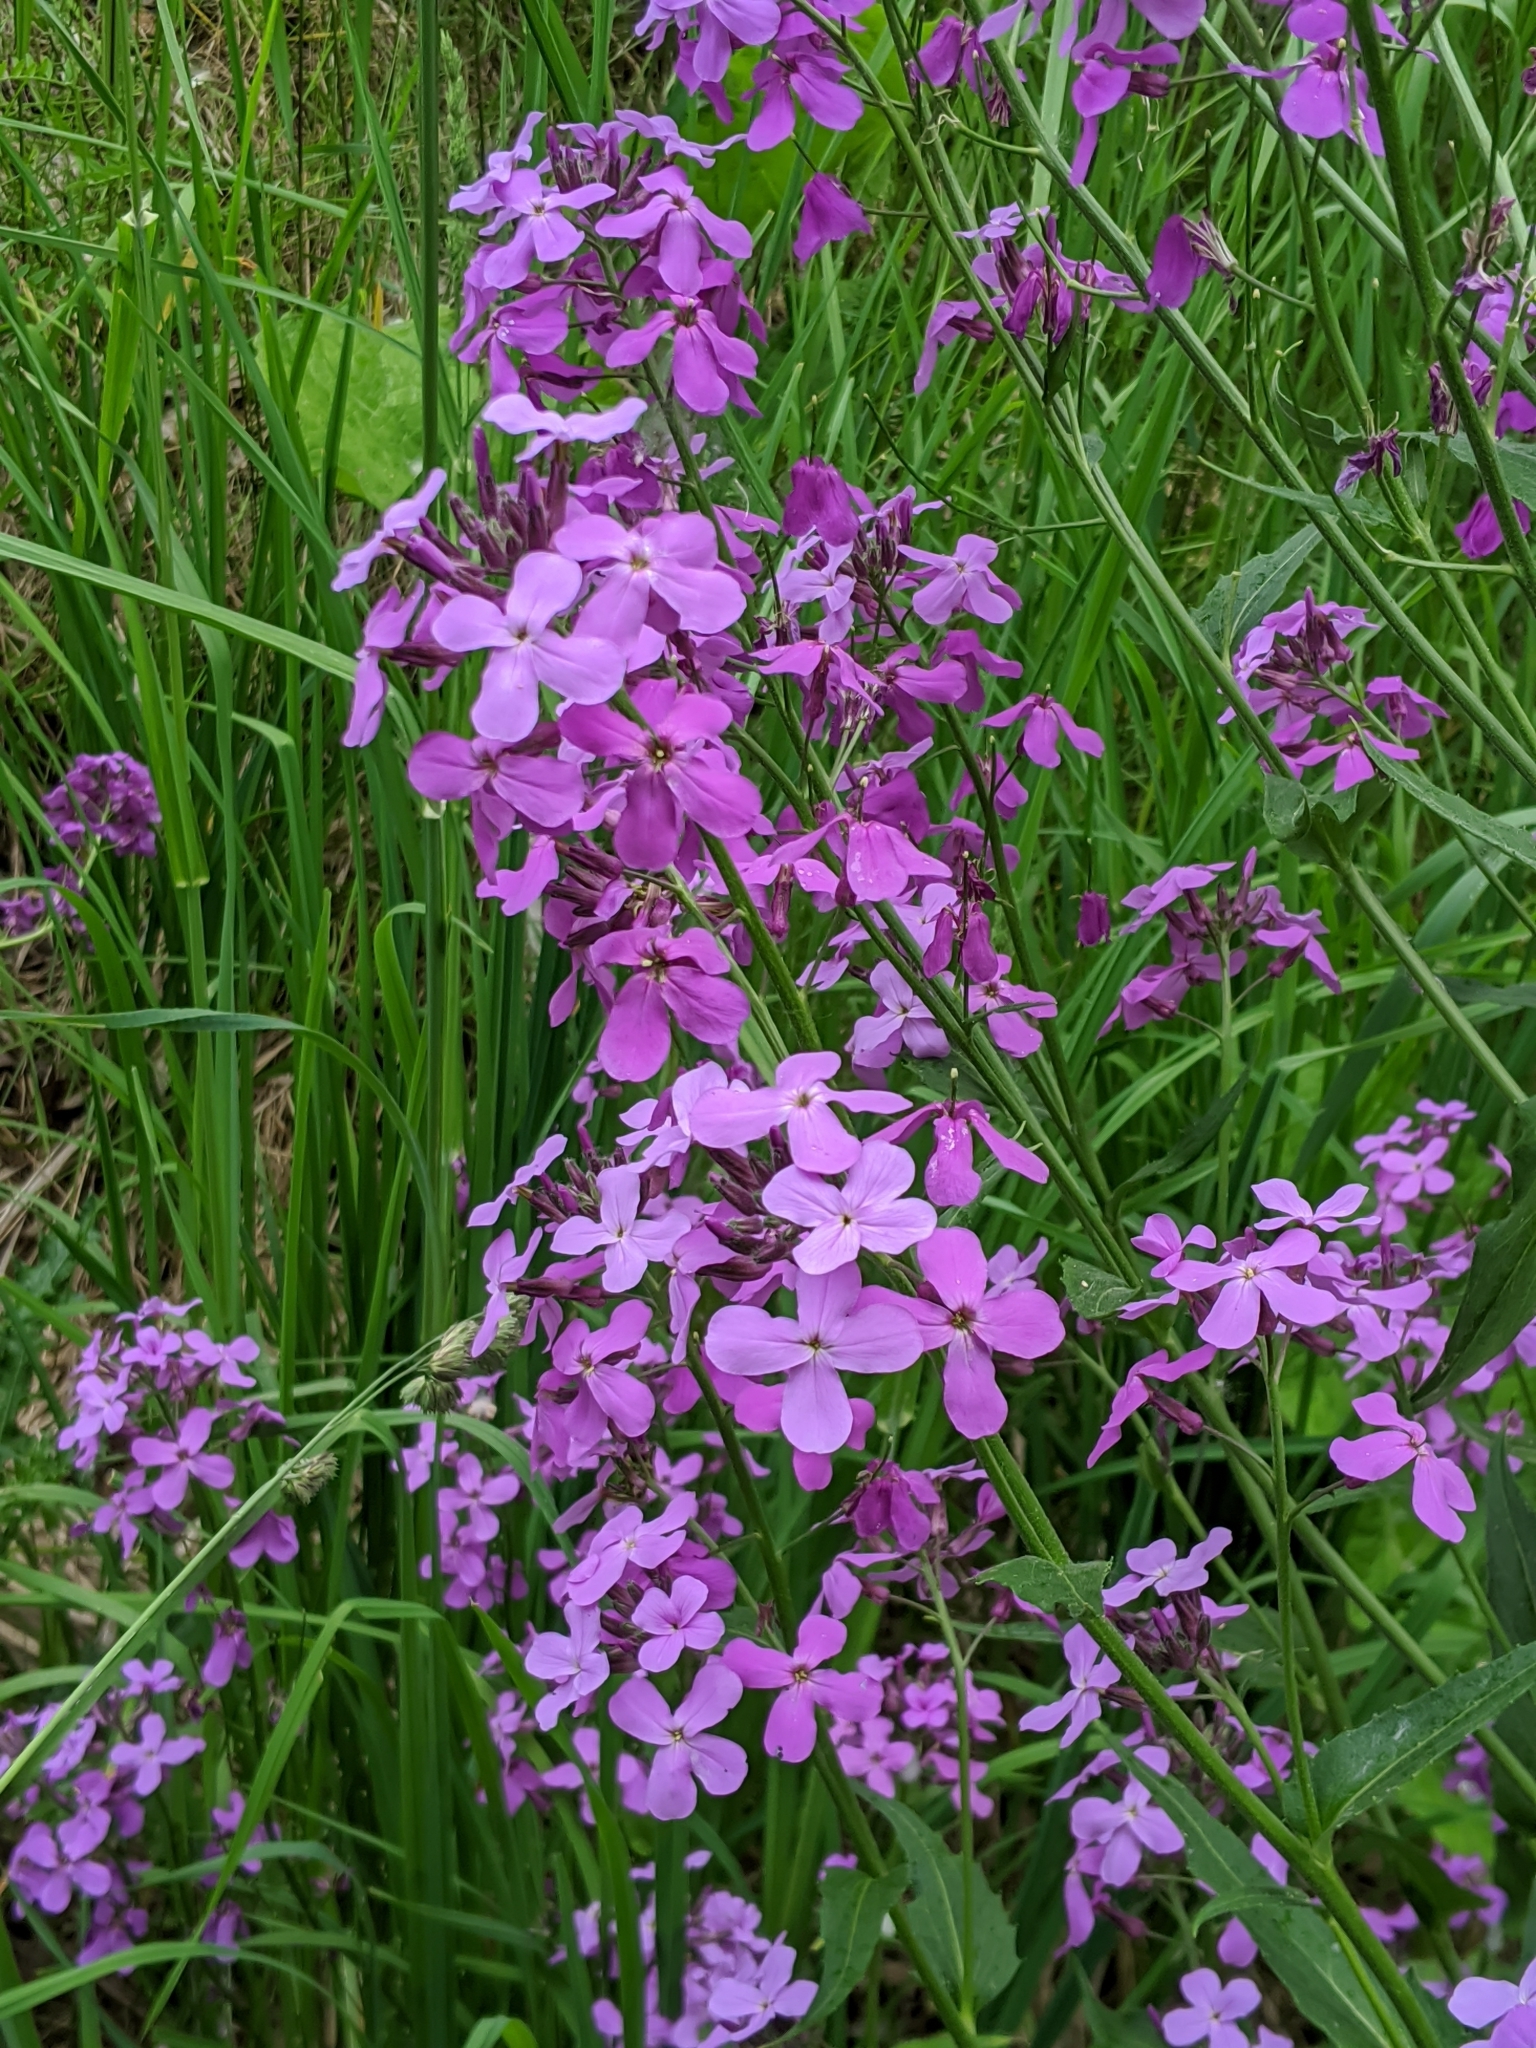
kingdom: Plantae
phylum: Tracheophyta
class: Magnoliopsida
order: Brassicales
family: Brassicaceae
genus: Hesperis
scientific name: Hesperis matronalis
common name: Dame's-violet
